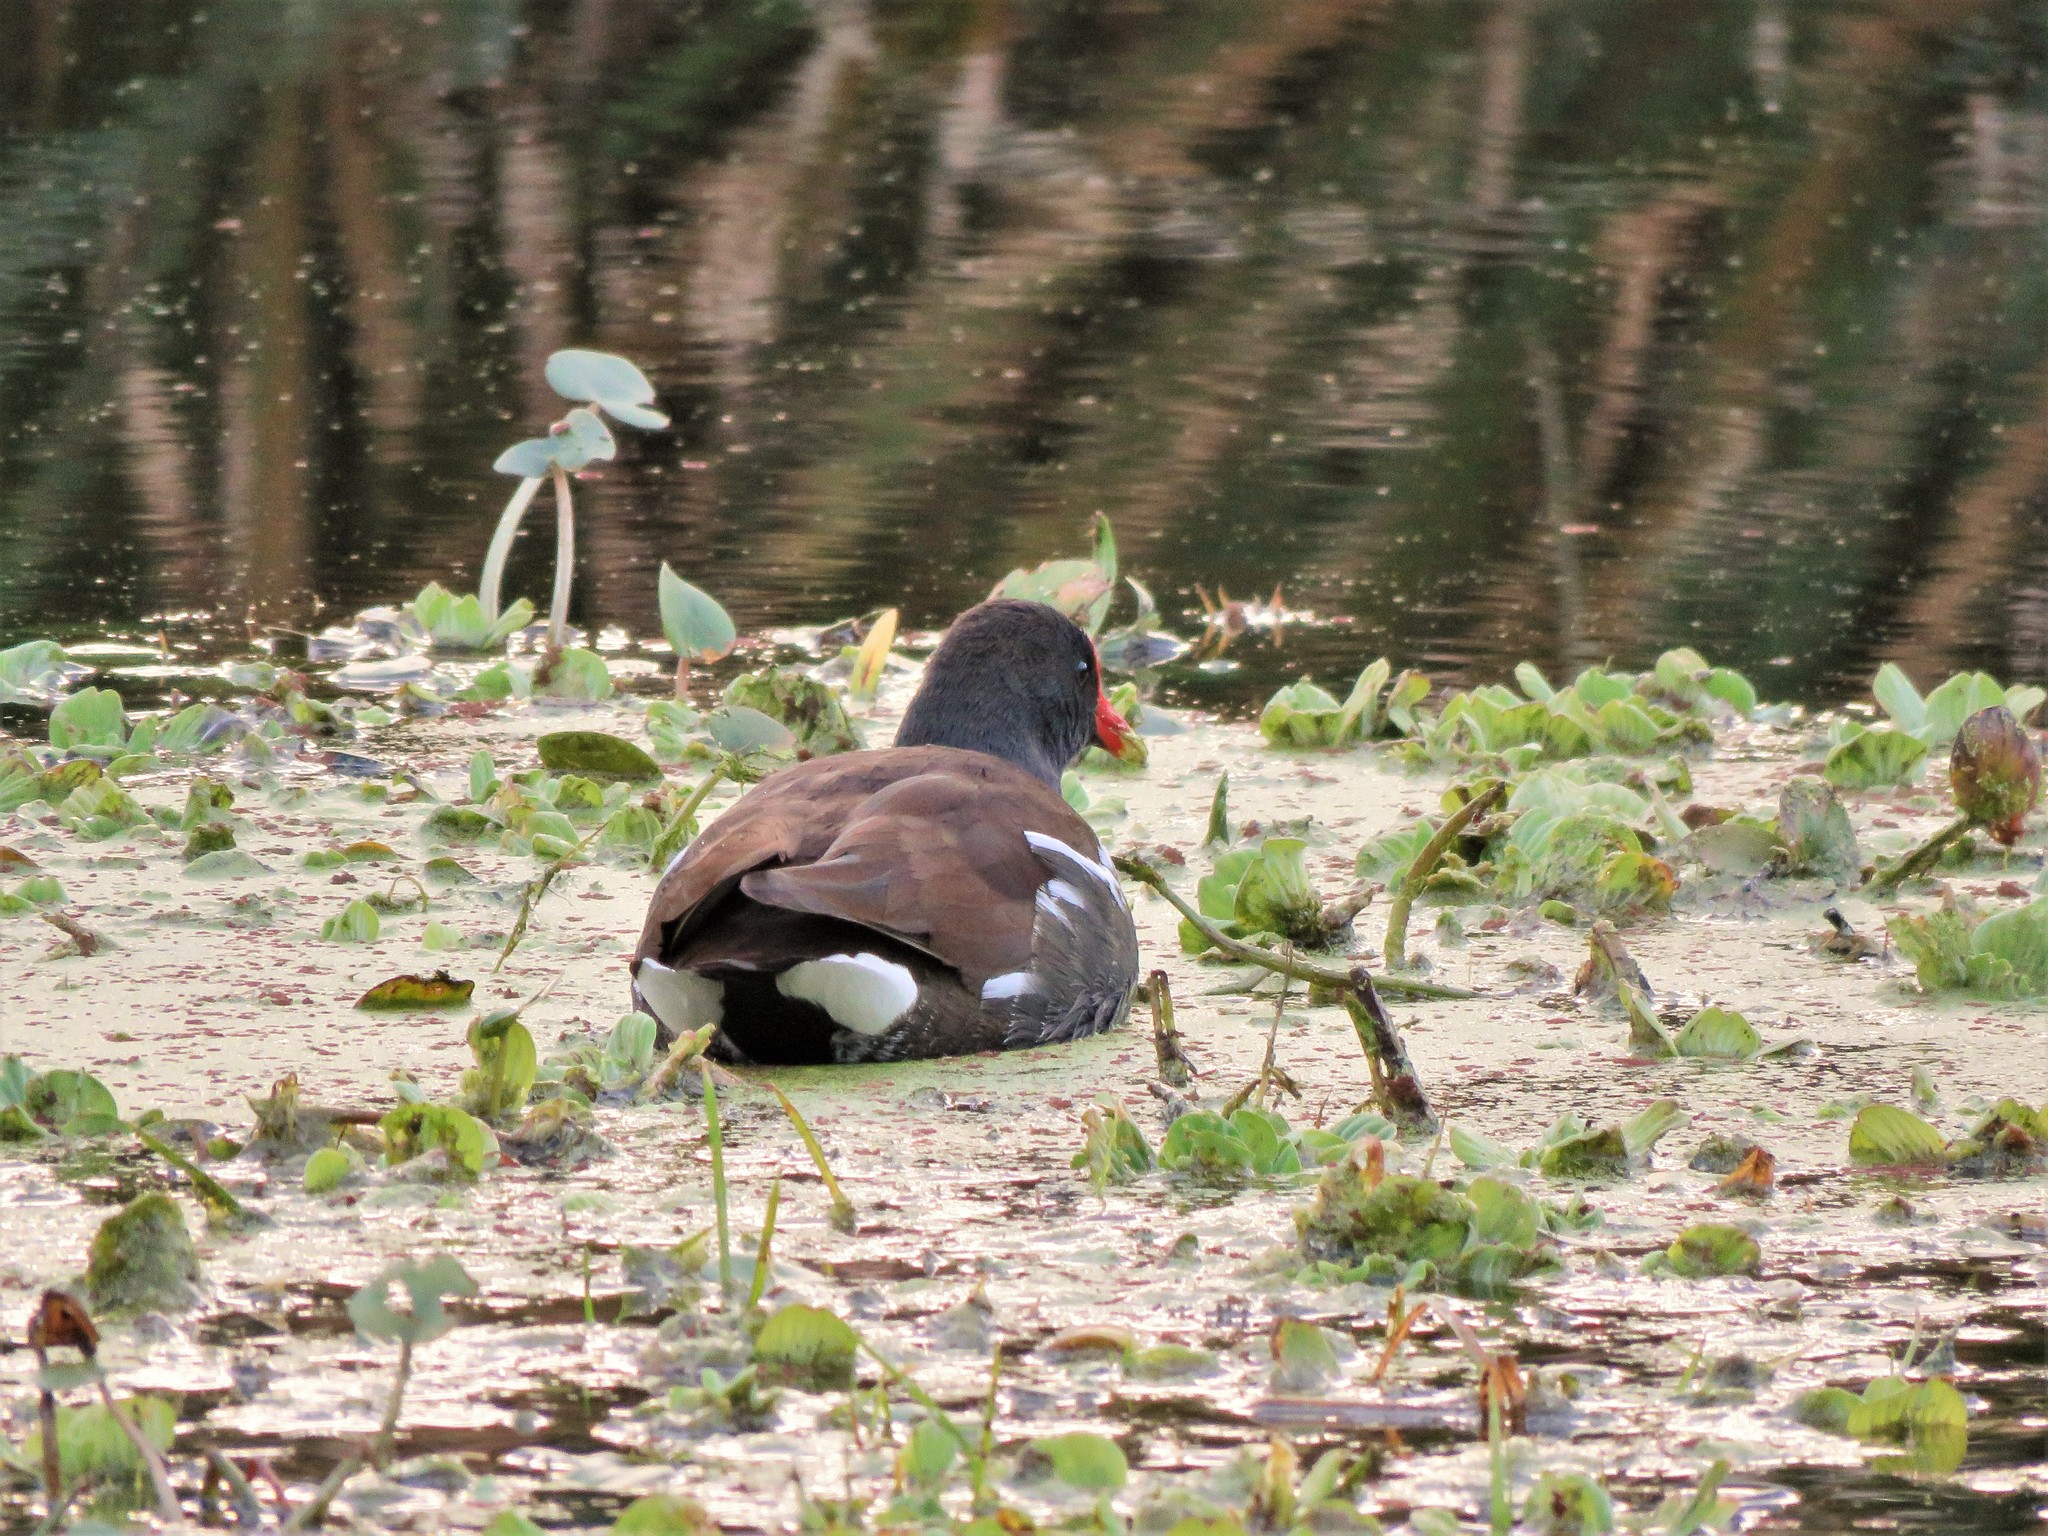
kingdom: Animalia
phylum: Chordata
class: Aves
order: Gruiformes
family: Rallidae
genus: Gallinula
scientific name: Gallinula chloropus
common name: Common moorhen
